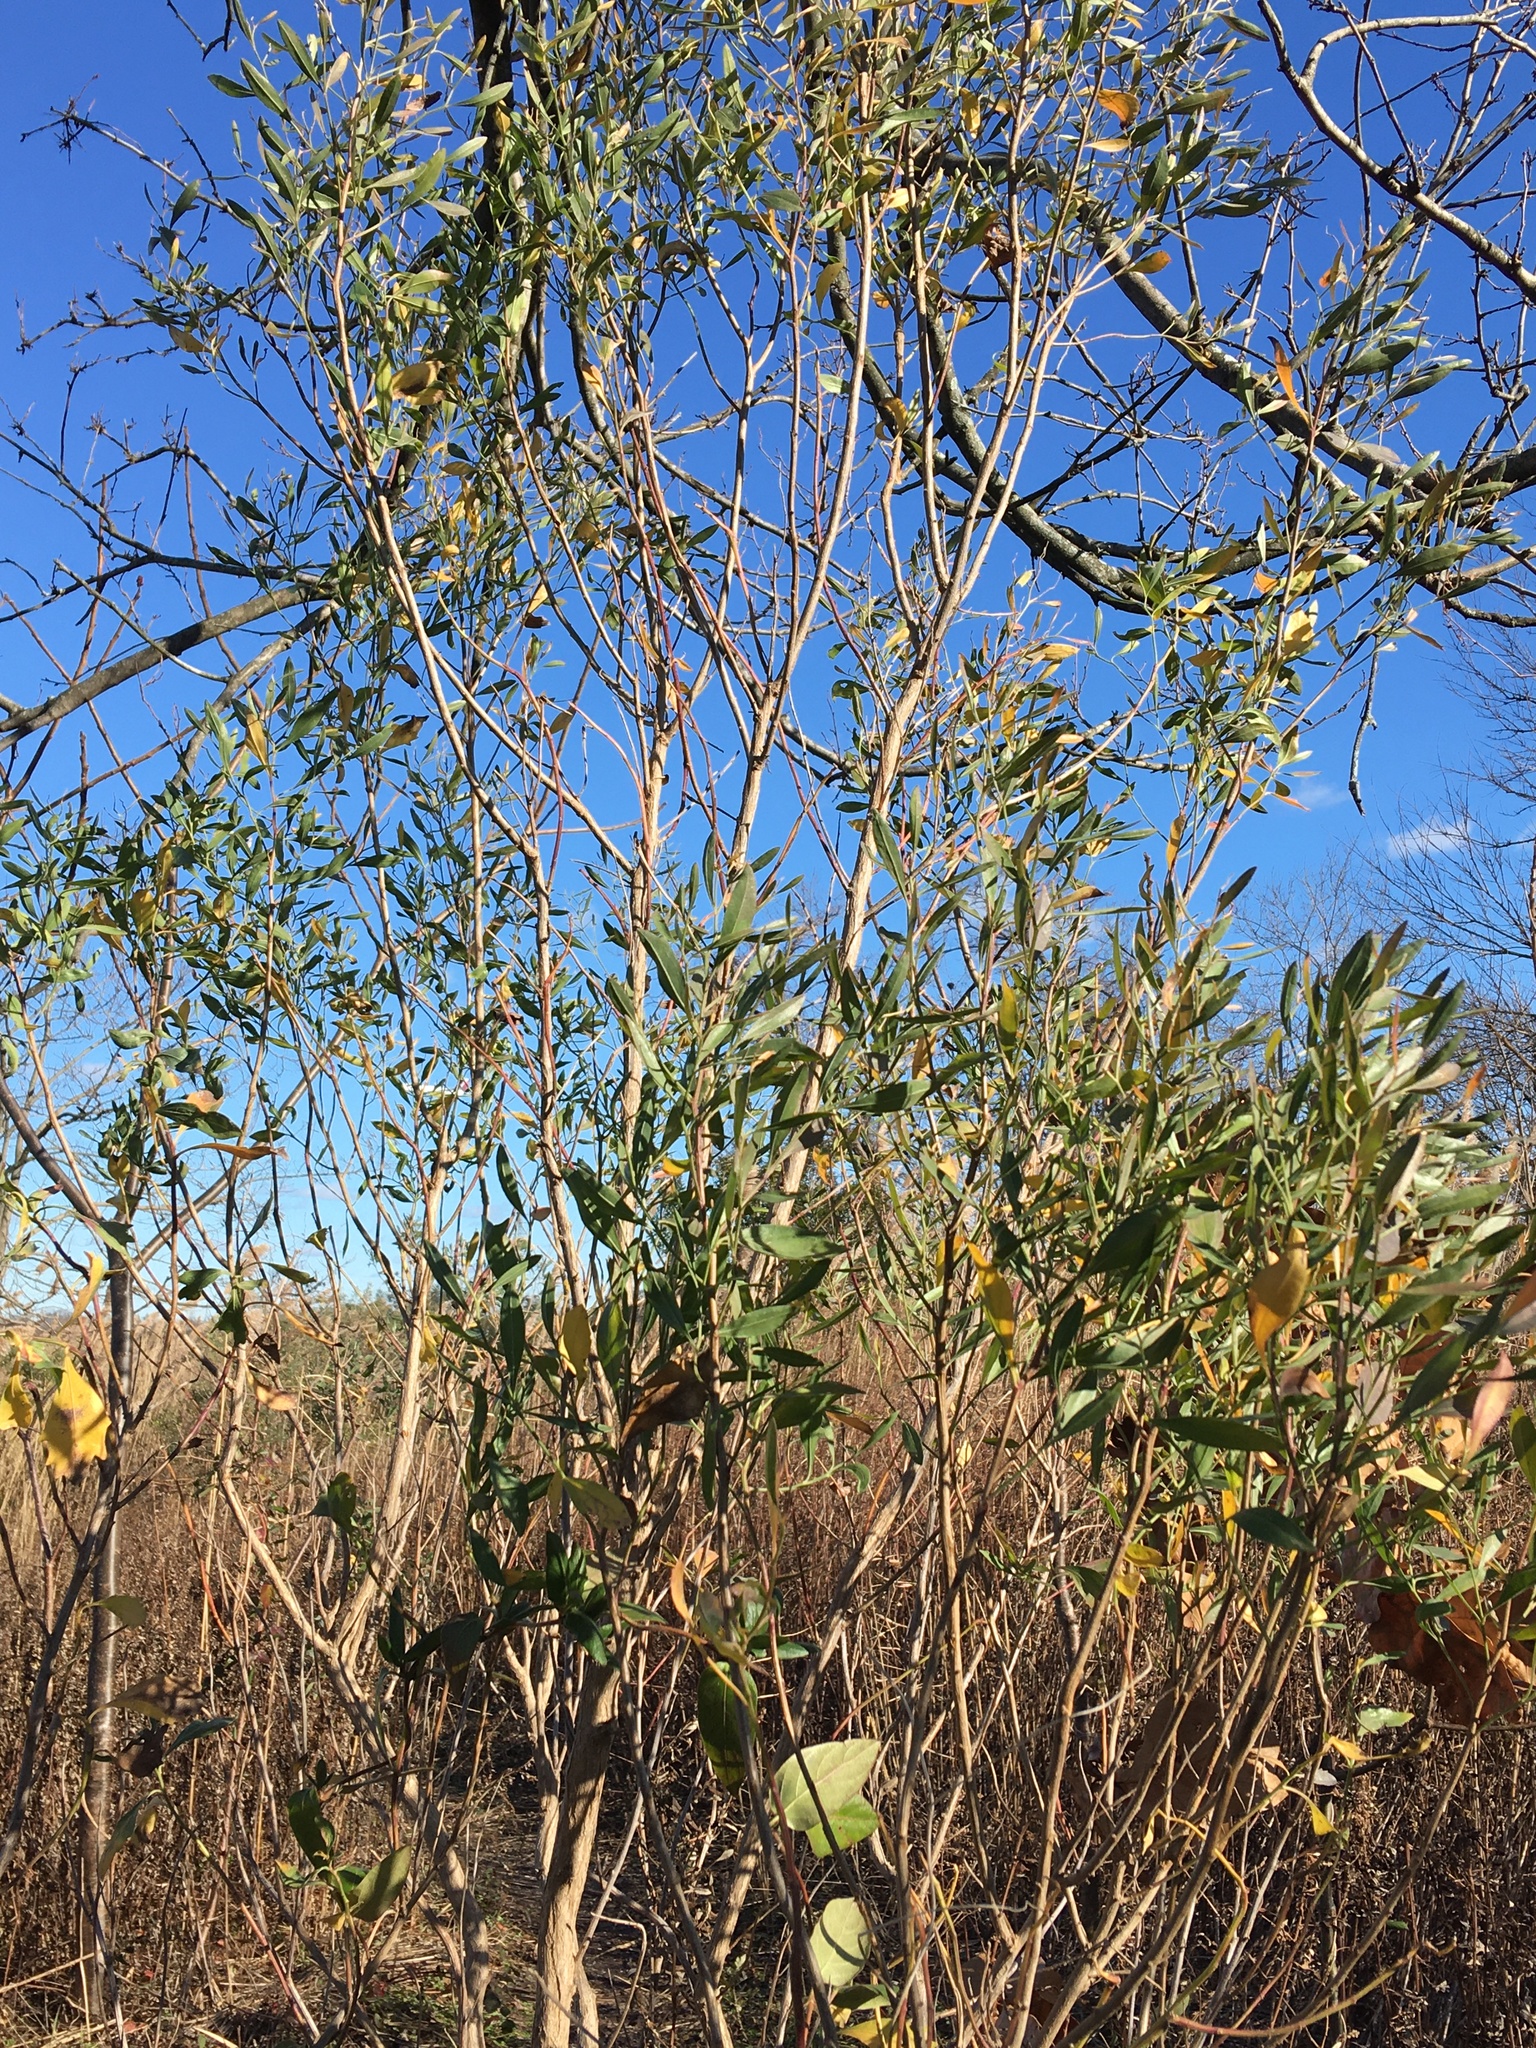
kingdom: Plantae
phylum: Tracheophyta
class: Magnoliopsida
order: Asterales
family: Asteraceae
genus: Baccharis
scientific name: Baccharis halimifolia
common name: Eastern baccharis
